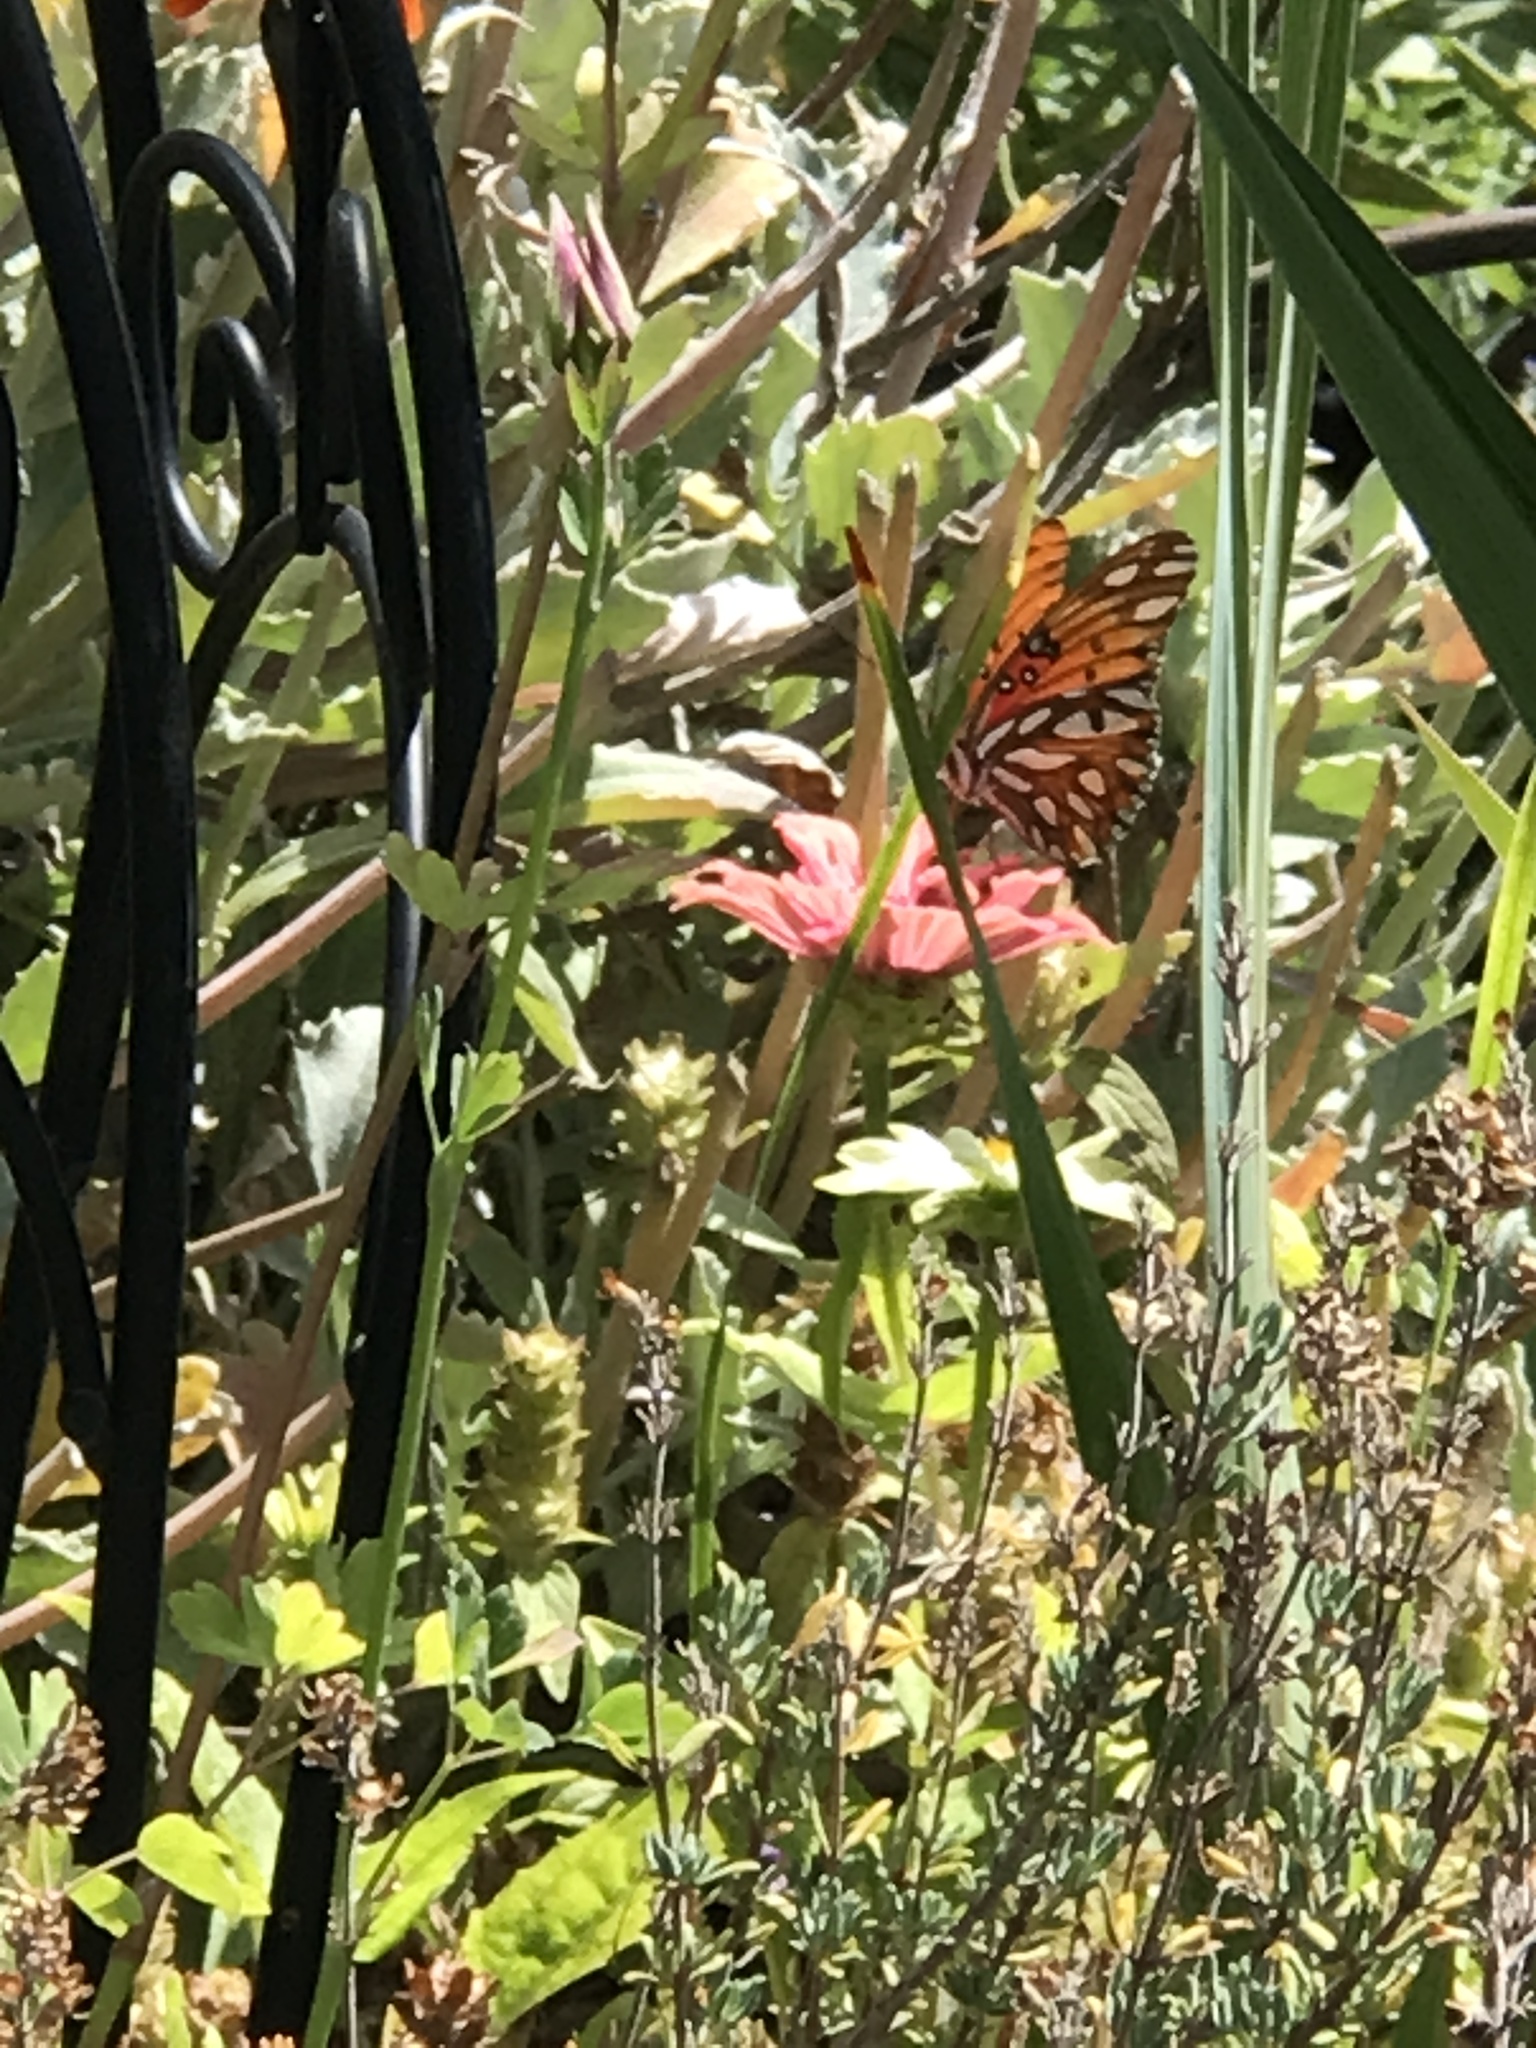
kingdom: Animalia
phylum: Arthropoda
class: Insecta
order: Lepidoptera
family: Nymphalidae
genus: Dione
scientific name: Dione vanillae
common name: Gulf fritillary
